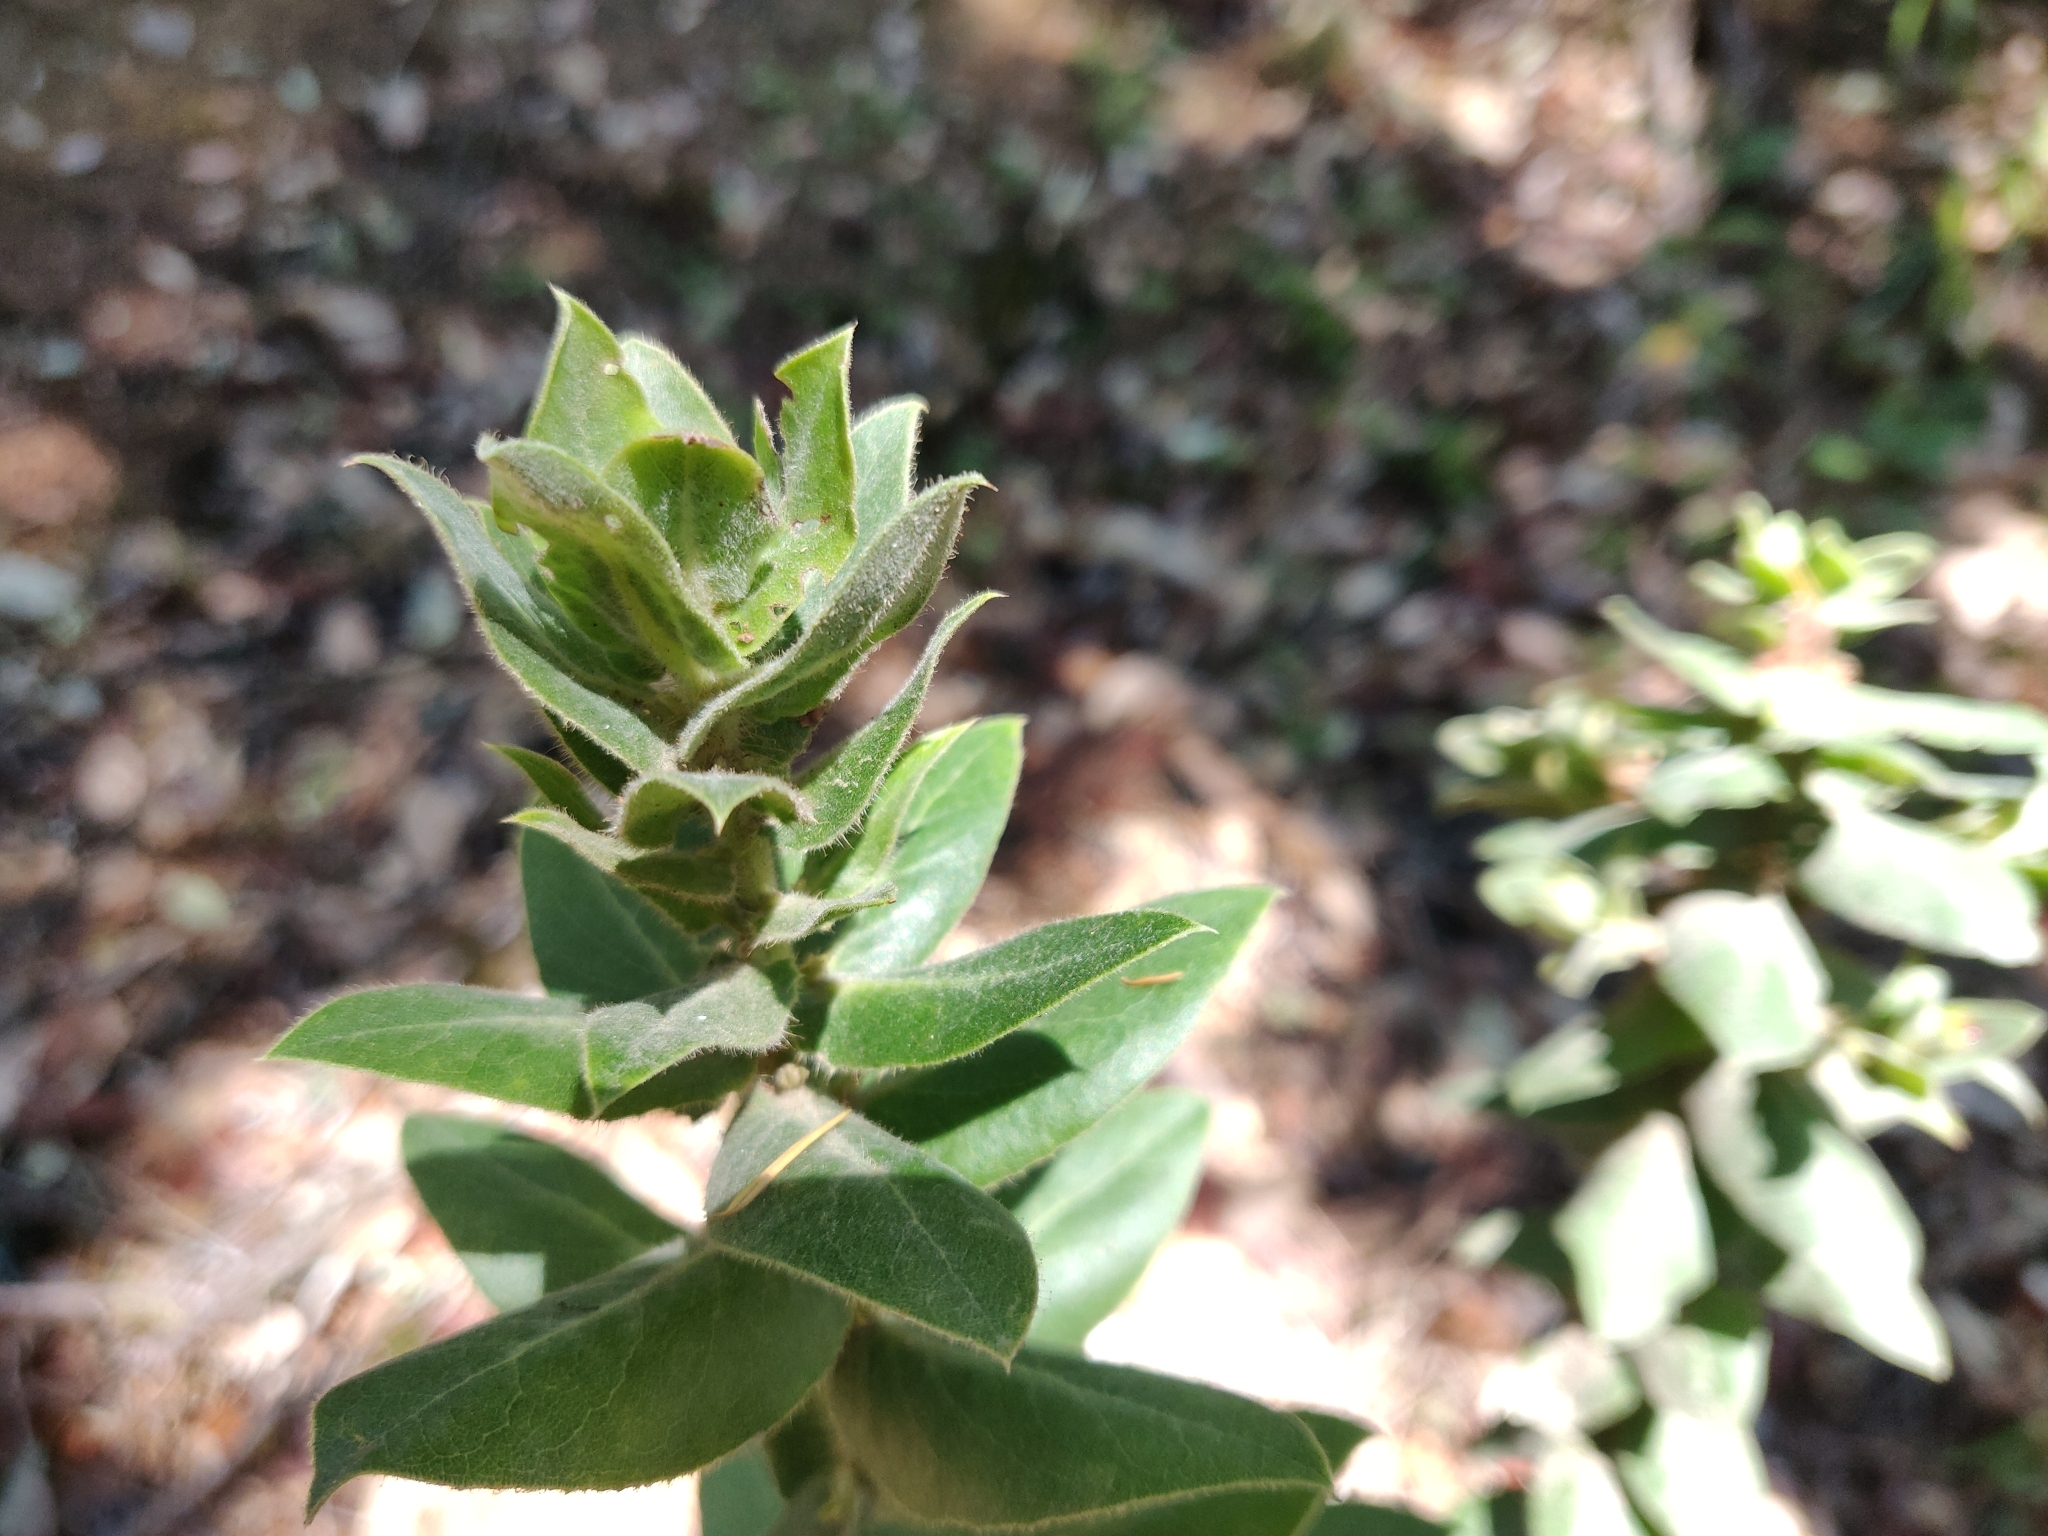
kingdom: Plantae
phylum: Tracheophyta
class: Magnoliopsida
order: Ericales
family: Ericaceae
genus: Arctostaphylos
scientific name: Arctostaphylos regismontana
